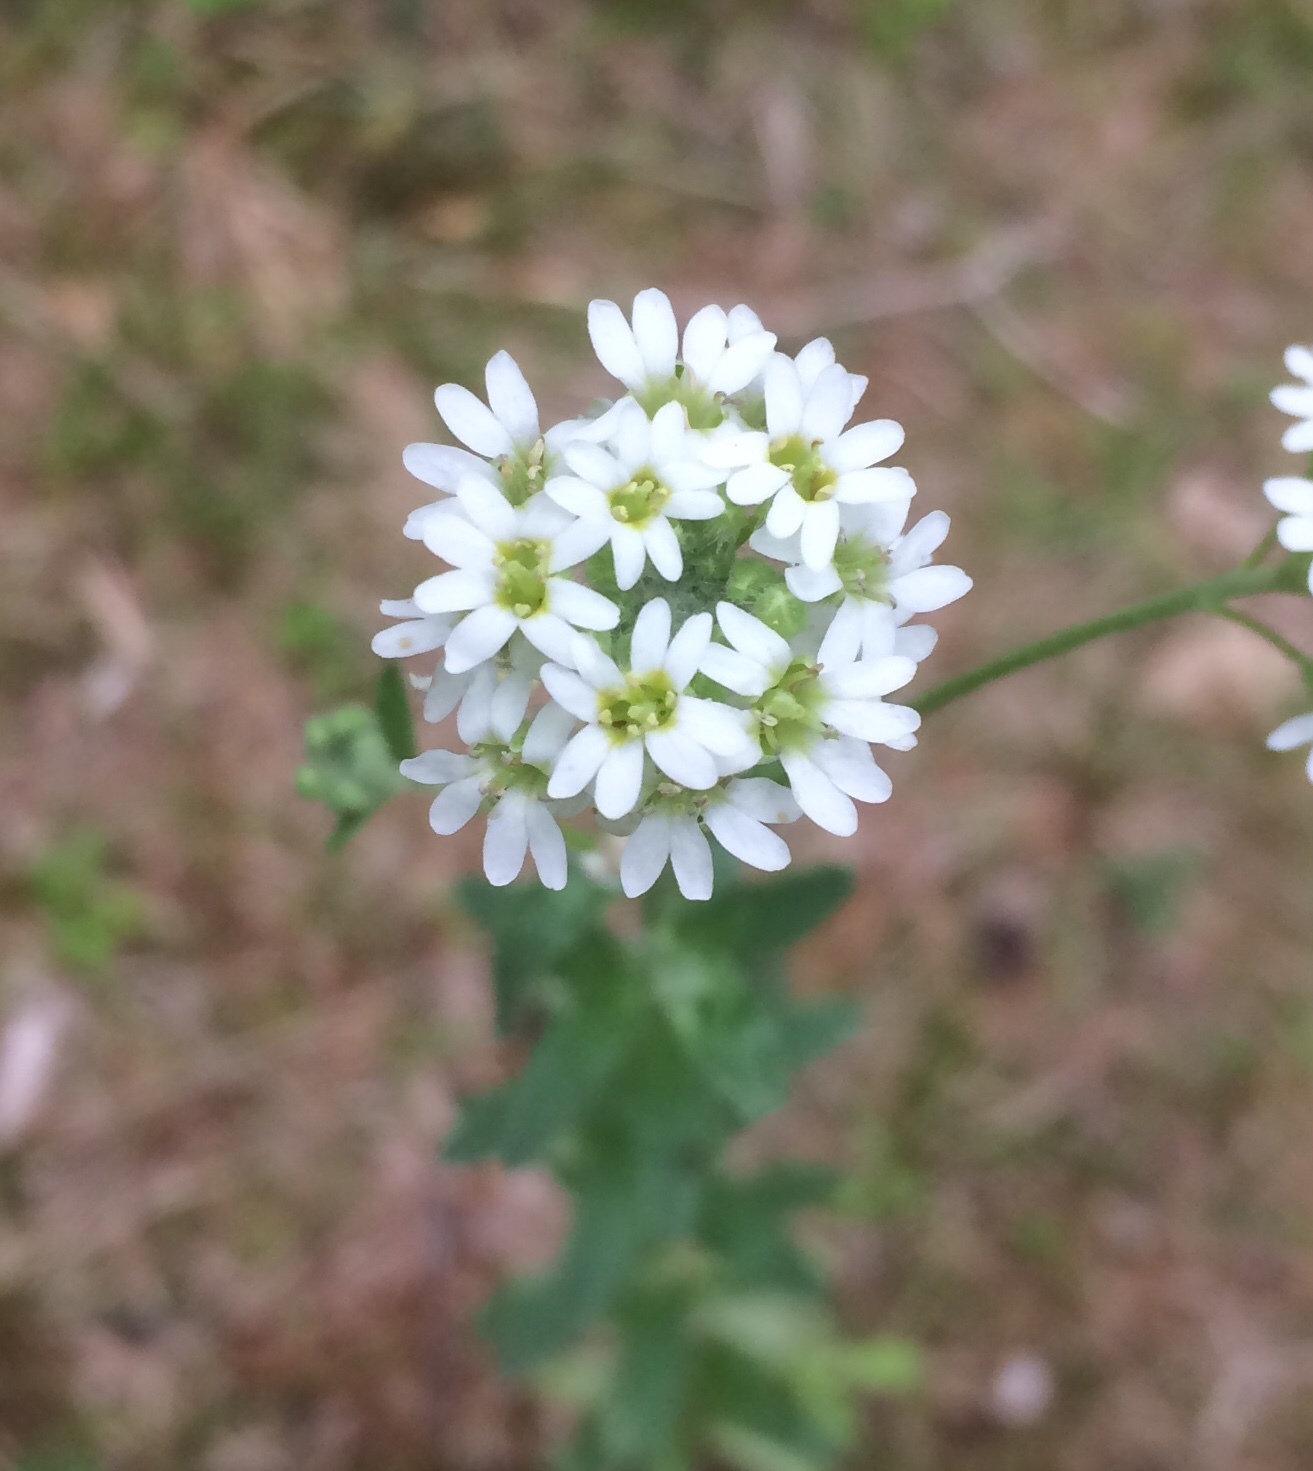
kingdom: Plantae
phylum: Tracheophyta
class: Magnoliopsida
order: Brassicales
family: Brassicaceae
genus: Berteroa
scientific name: Berteroa incana
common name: Hoary alison
